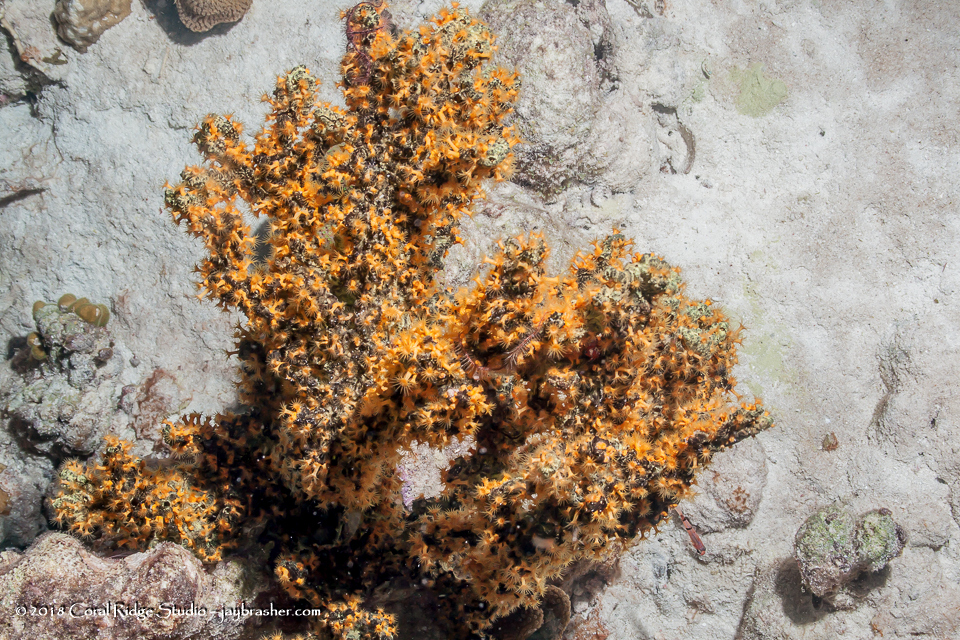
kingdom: Animalia
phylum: Cnidaria
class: Anthozoa
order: Zoantharia
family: Parazoanthidae
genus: Parazoanthus
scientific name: Parazoanthus swiftii
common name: Golden zoanthid
